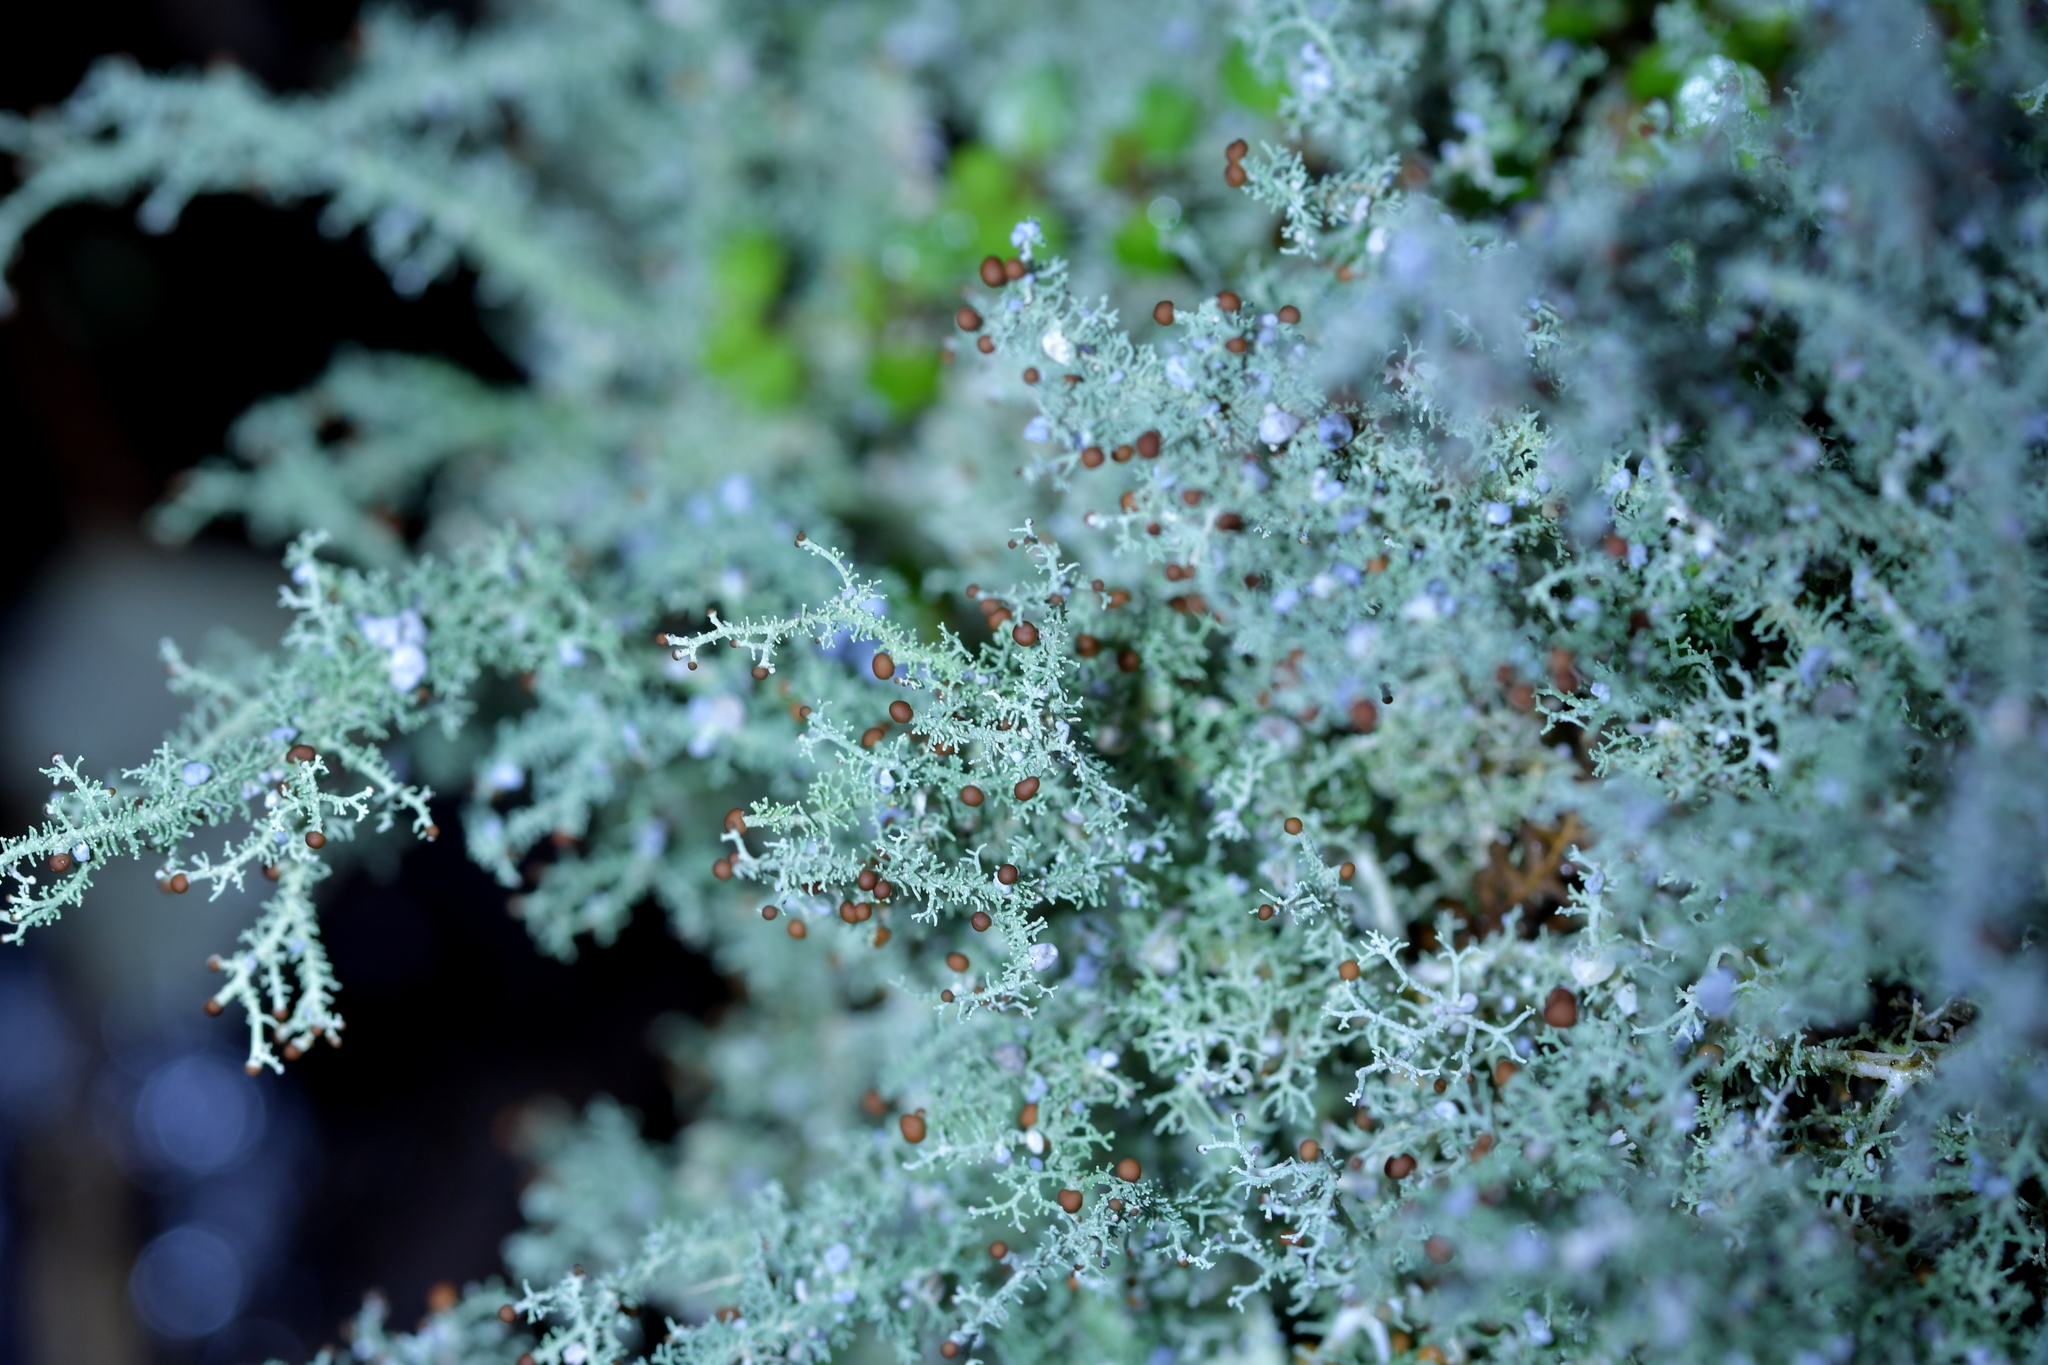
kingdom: Fungi
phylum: Ascomycota
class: Lecanoromycetes
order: Lecanorales
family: Stereocaulaceae
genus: Stereocaulon
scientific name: Stereocaulon ramulosum
